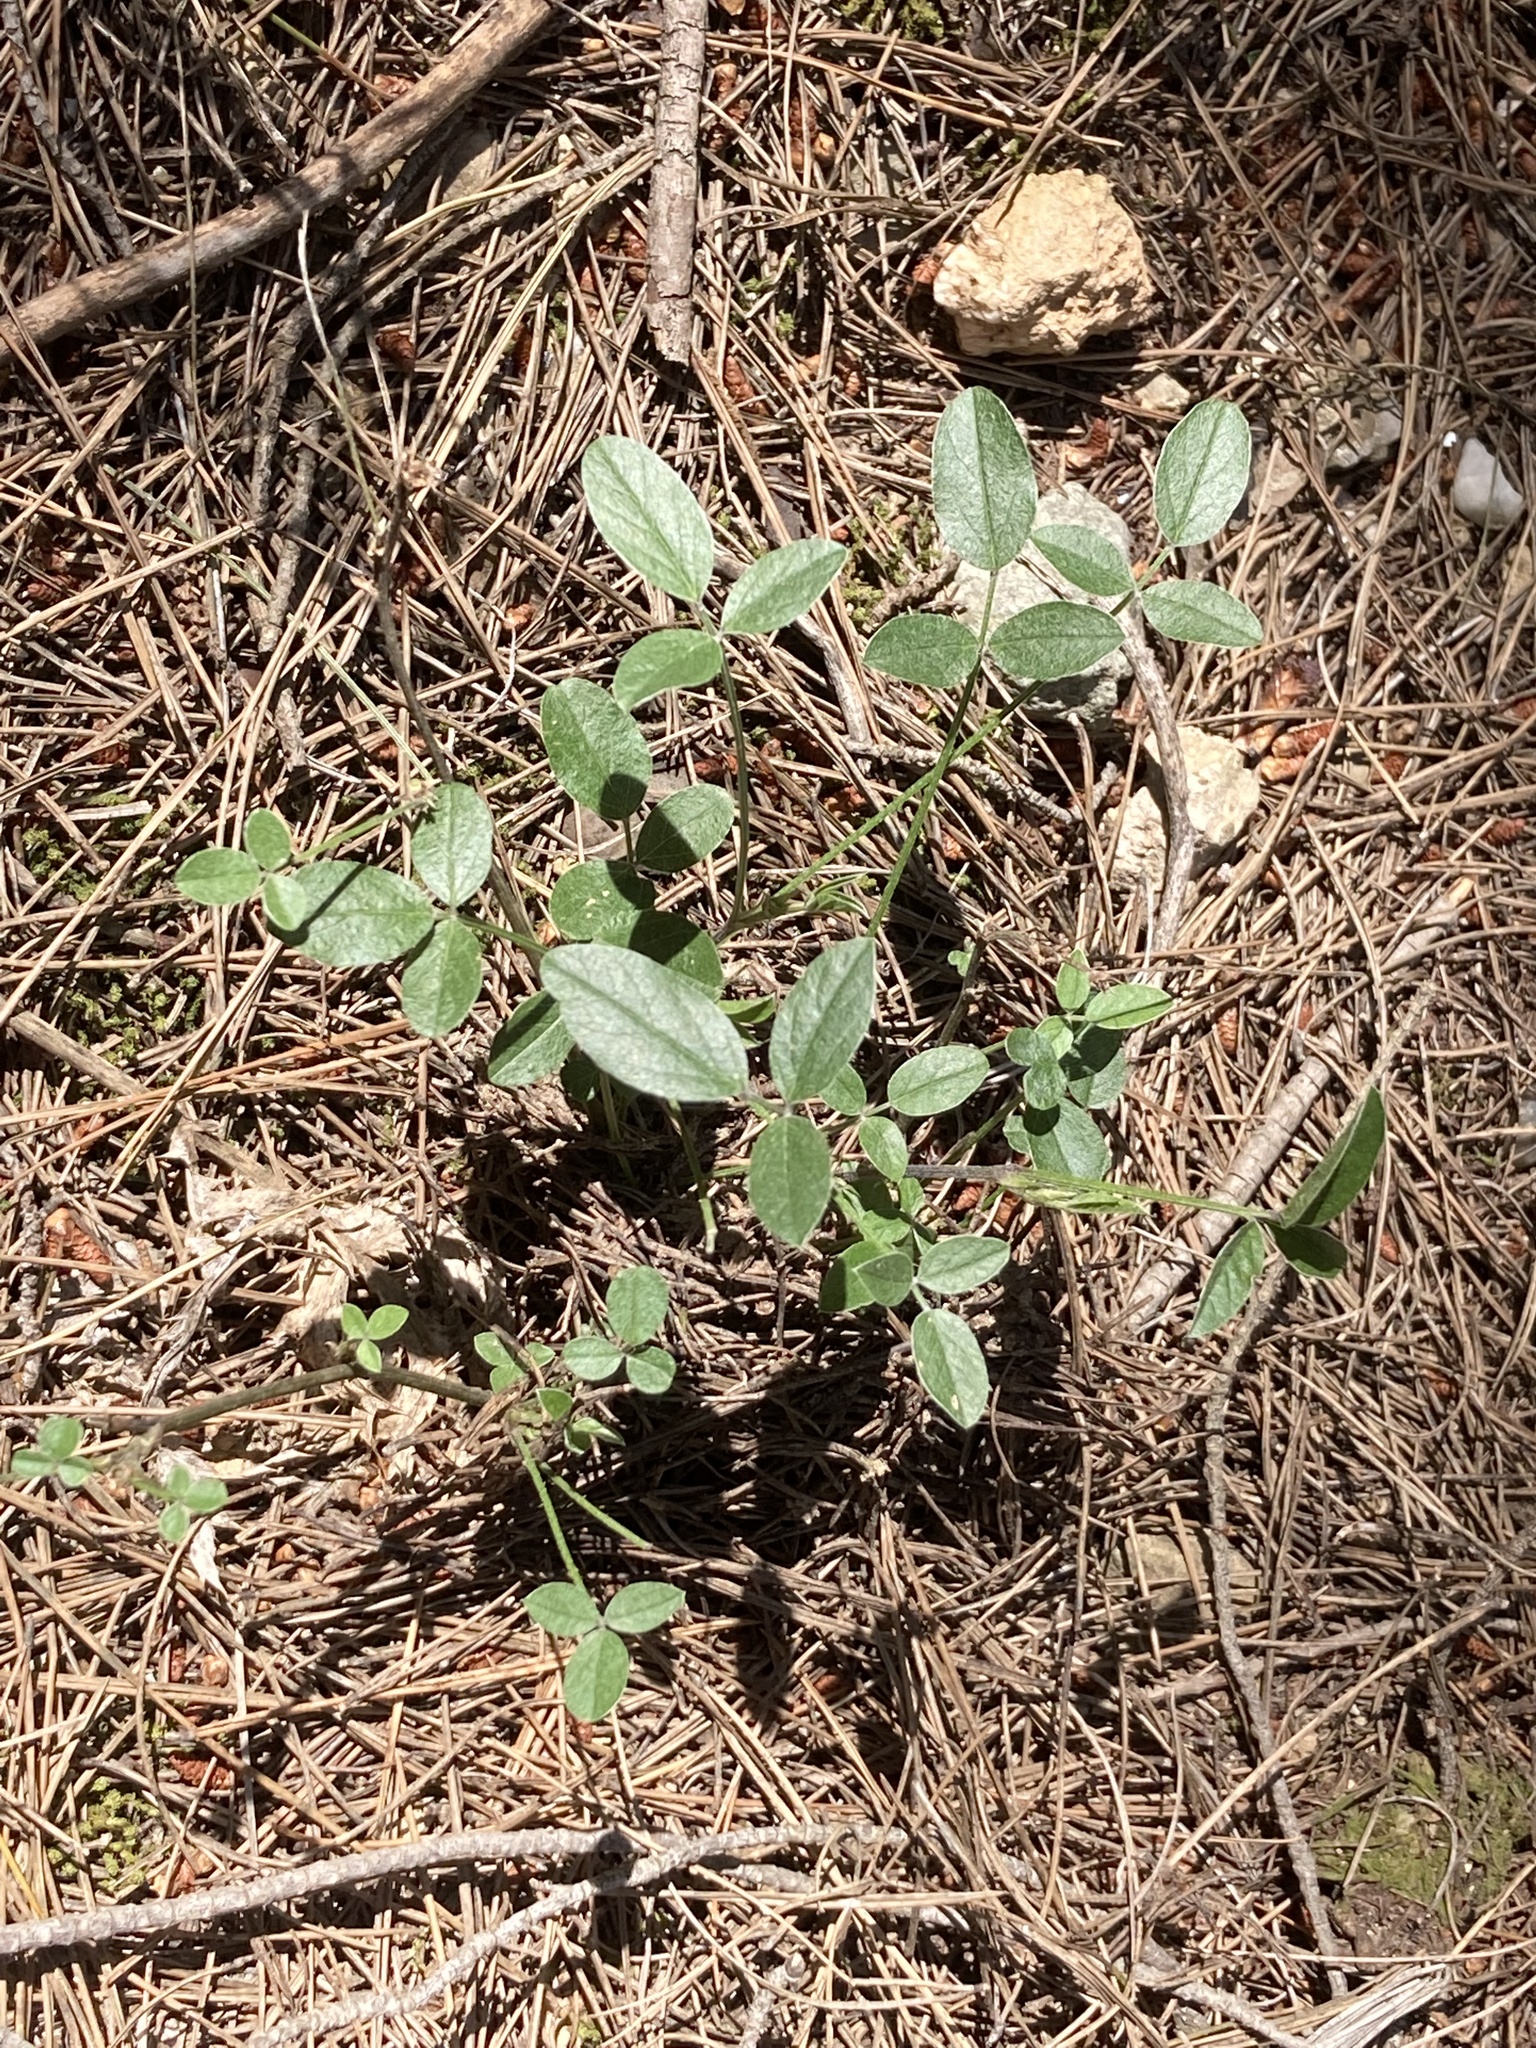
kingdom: Plantae
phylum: Tracheophyta
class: Magnoliopsida
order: Fabales
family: Fabaceae
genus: Bituminaria
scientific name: Bituminaria bituminosa
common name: Arabian pea
